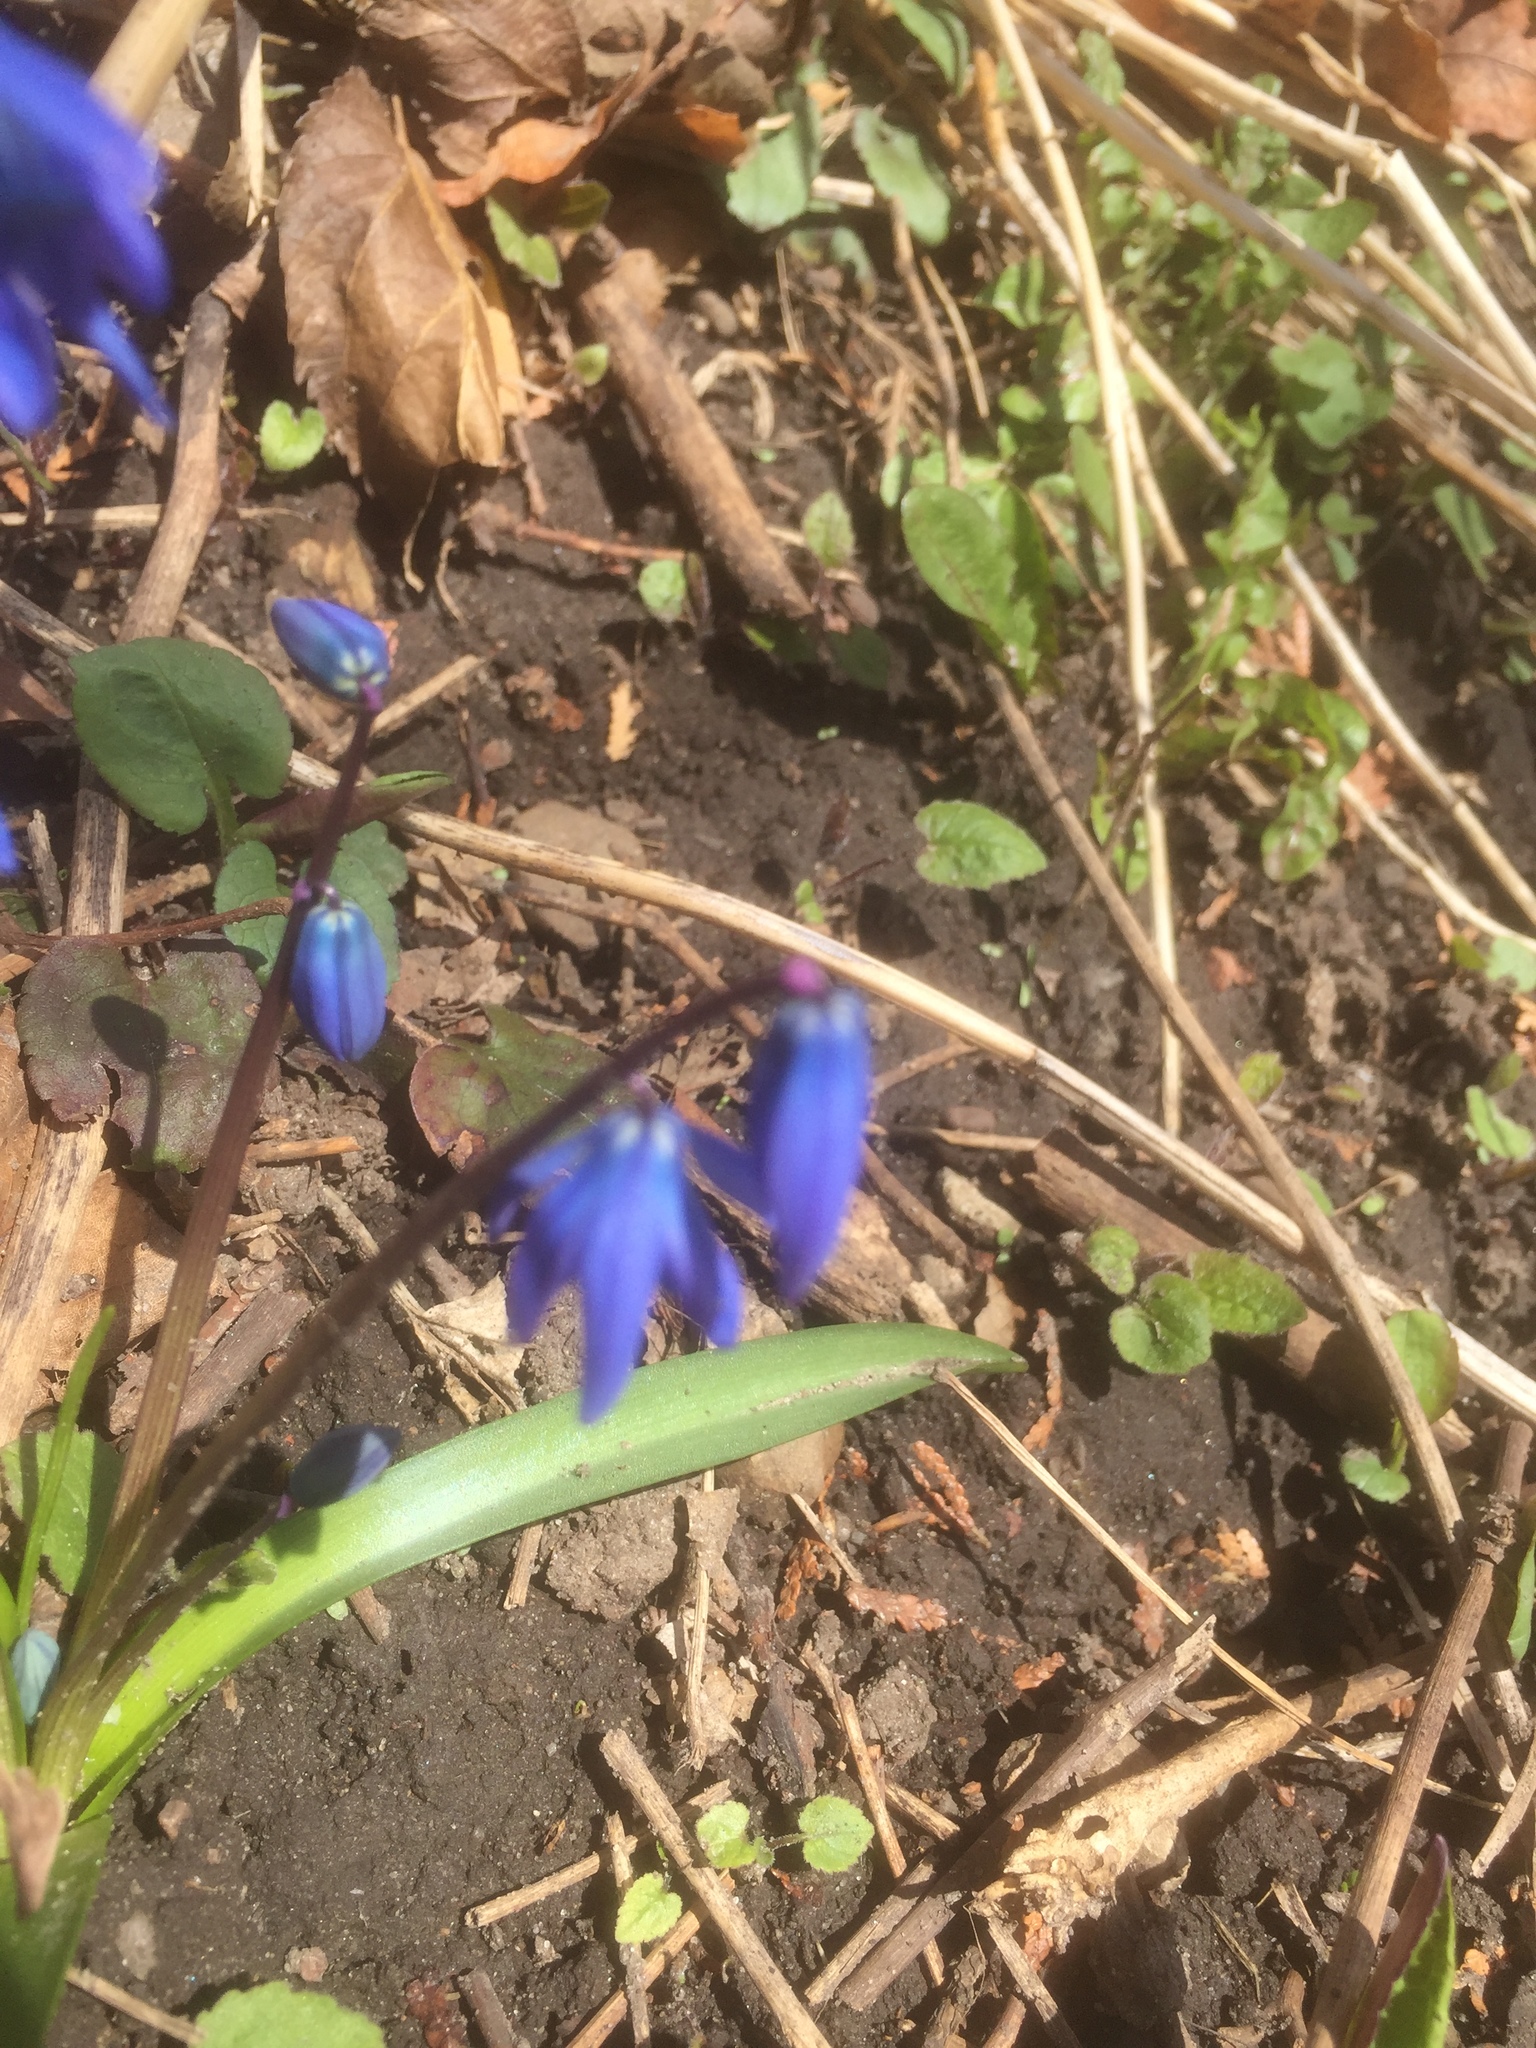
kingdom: Plantae
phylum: Tracheophyta
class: Liliopsida
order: Asparagales
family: Asparagaceae
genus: Scilla
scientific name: Scilla siberica
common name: Siberian squill
